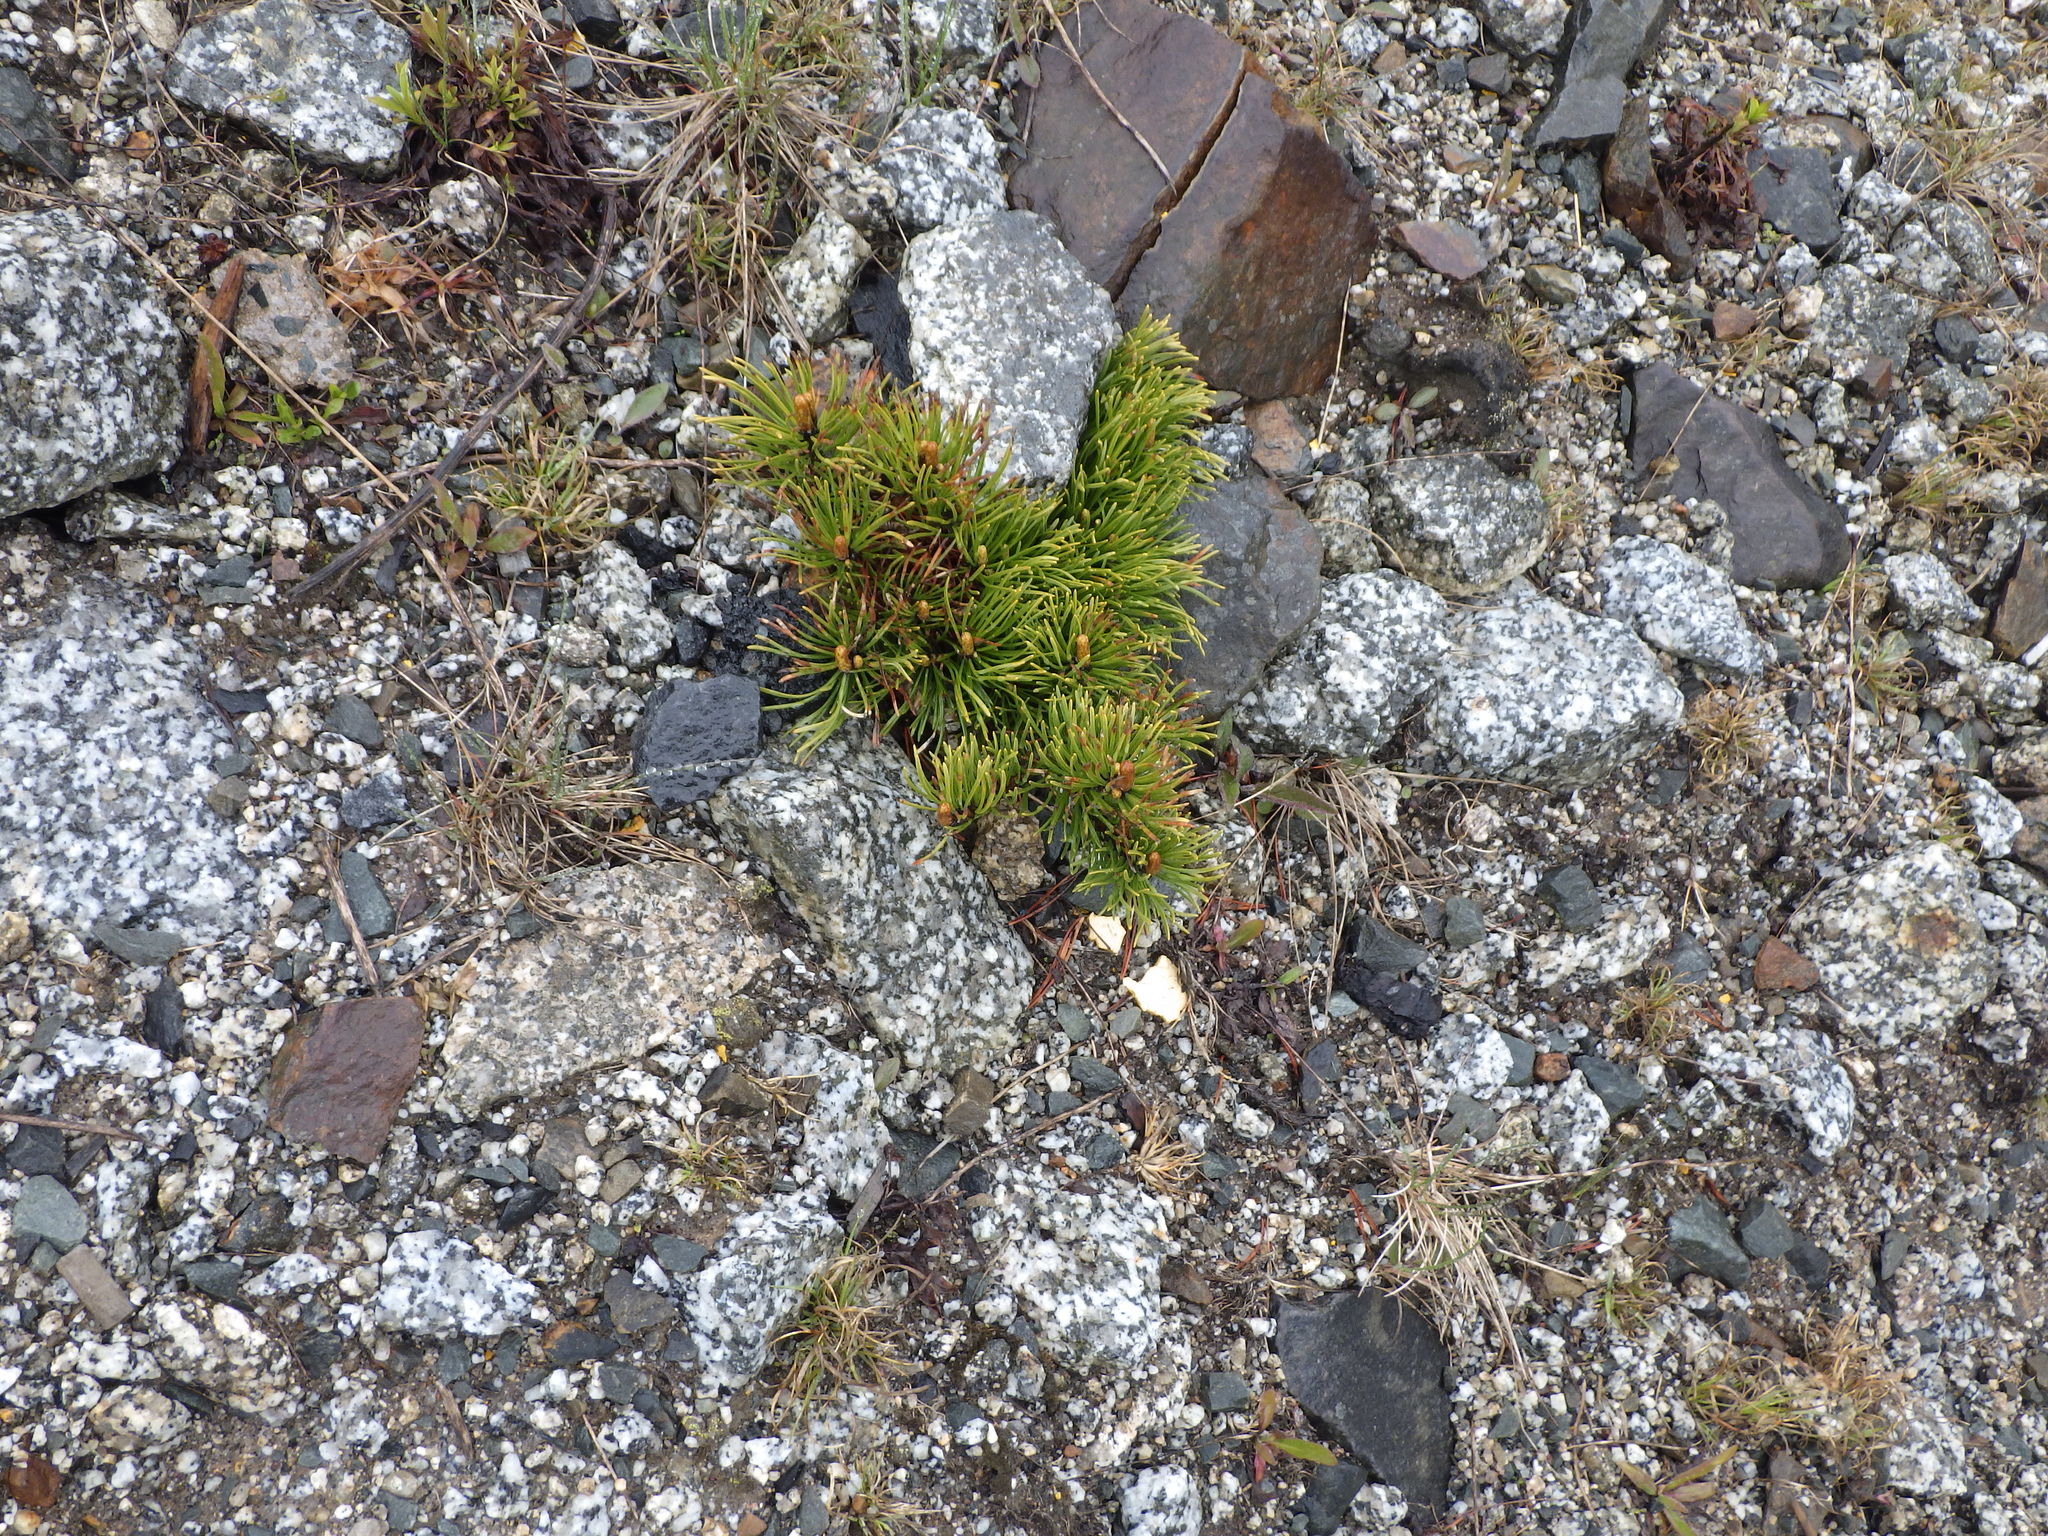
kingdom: Plantae
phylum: Tracheophyta
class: Pinopsida
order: Pinales
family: Pinaceae
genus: Pinus
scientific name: Pinus banksiana
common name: Jack pine
